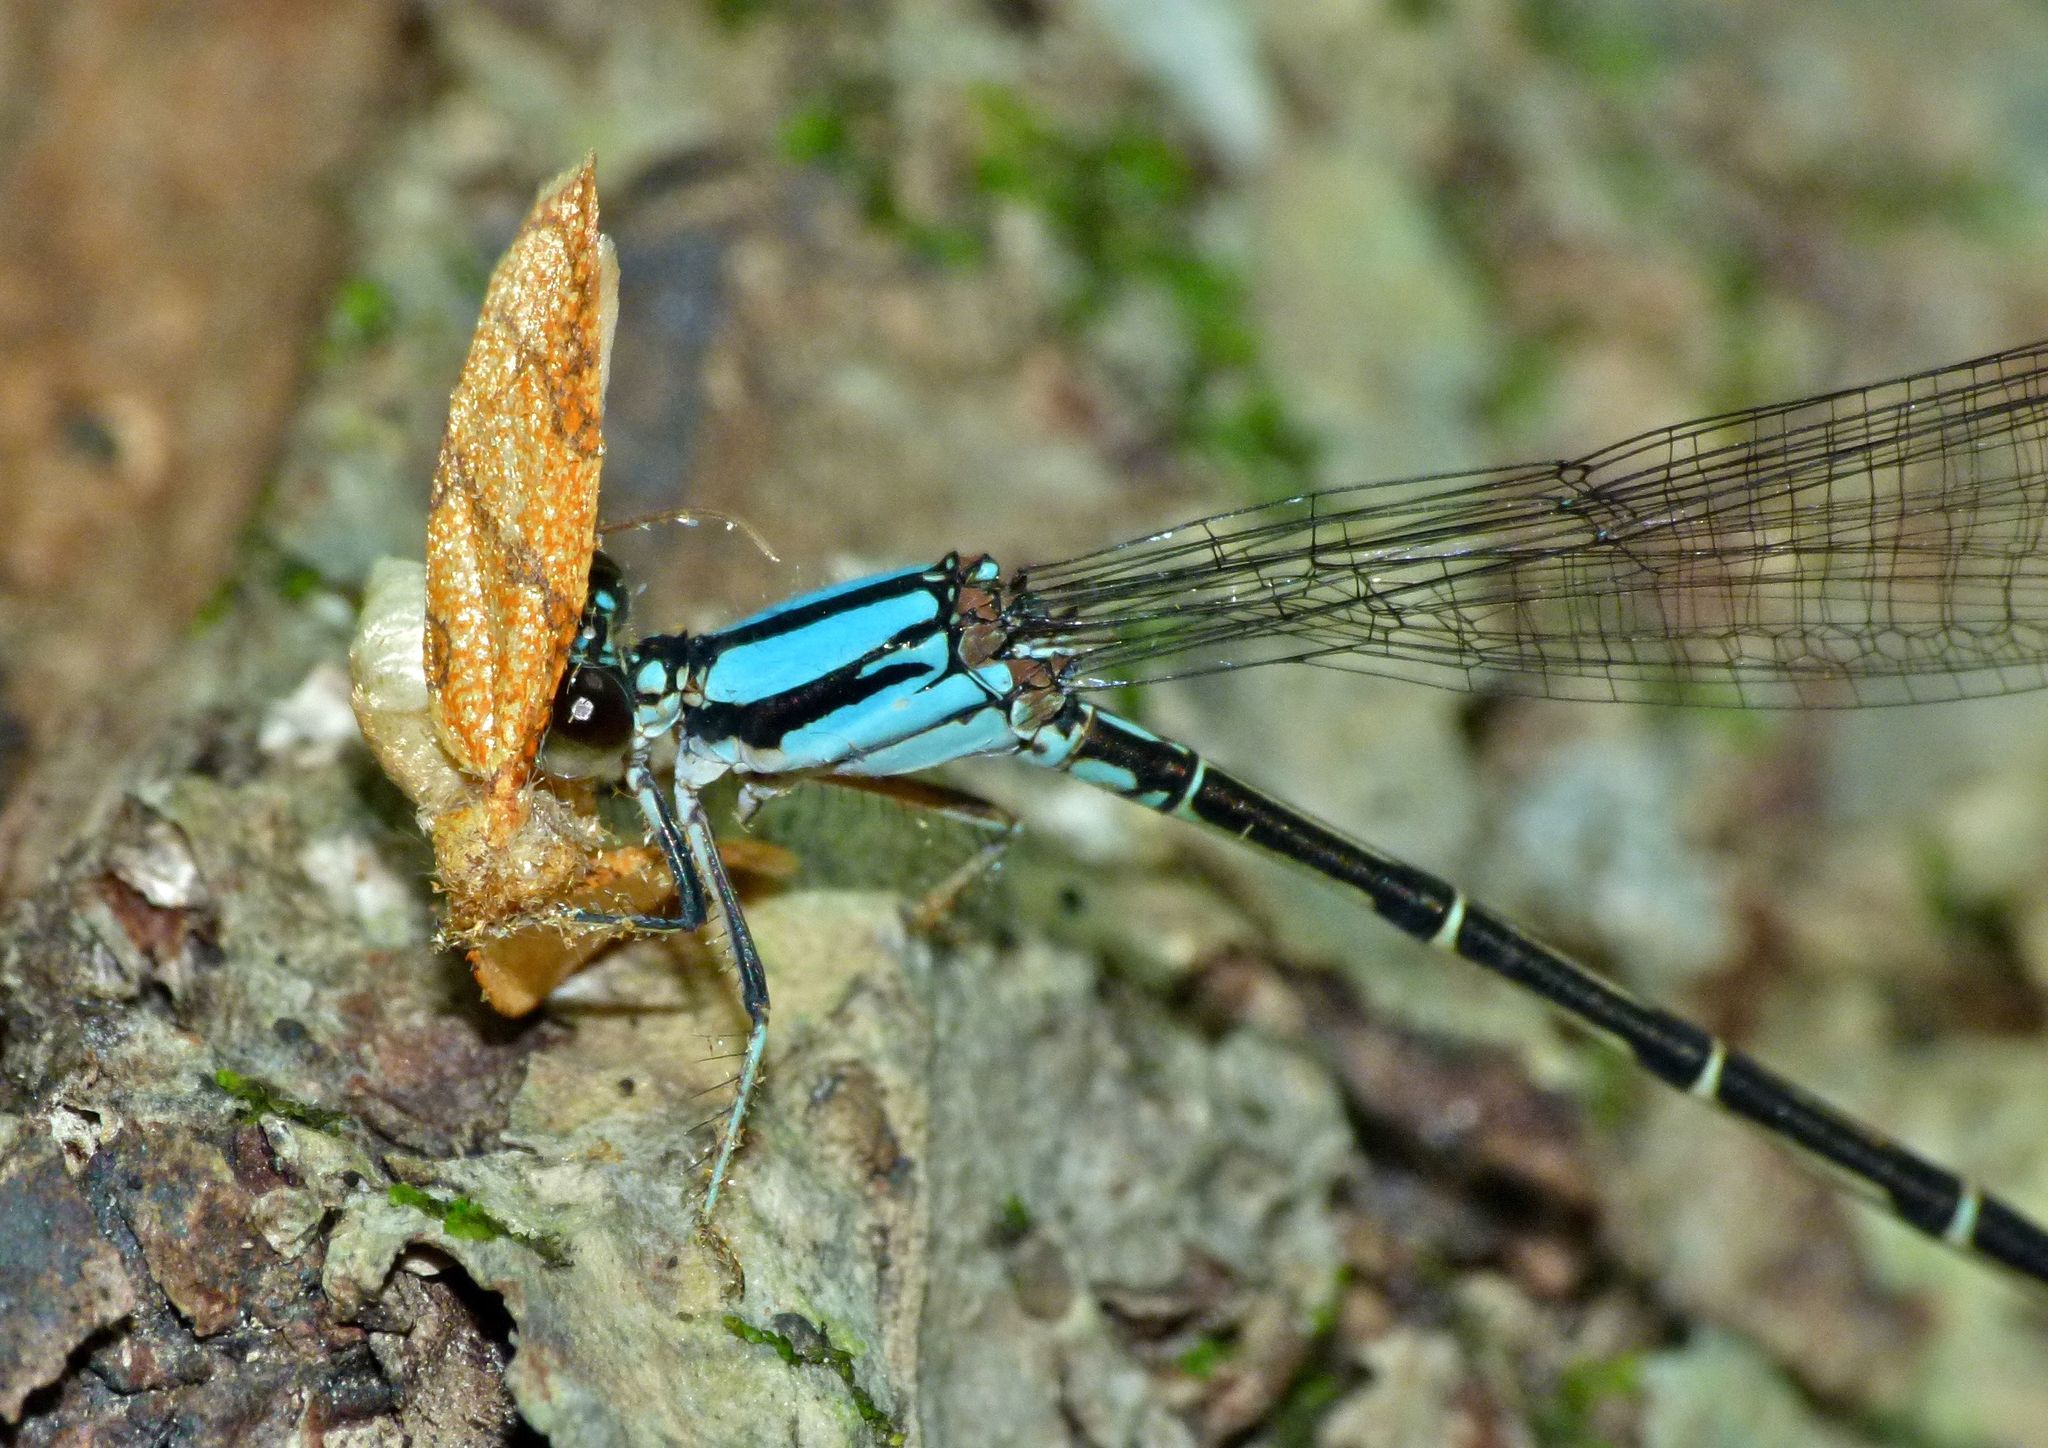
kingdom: Animalia
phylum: Arthropoda
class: Insecta
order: Odonata
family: Coenagrionidae
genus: Argia
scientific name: Argia tibialis
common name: Blue-tipped dancer
